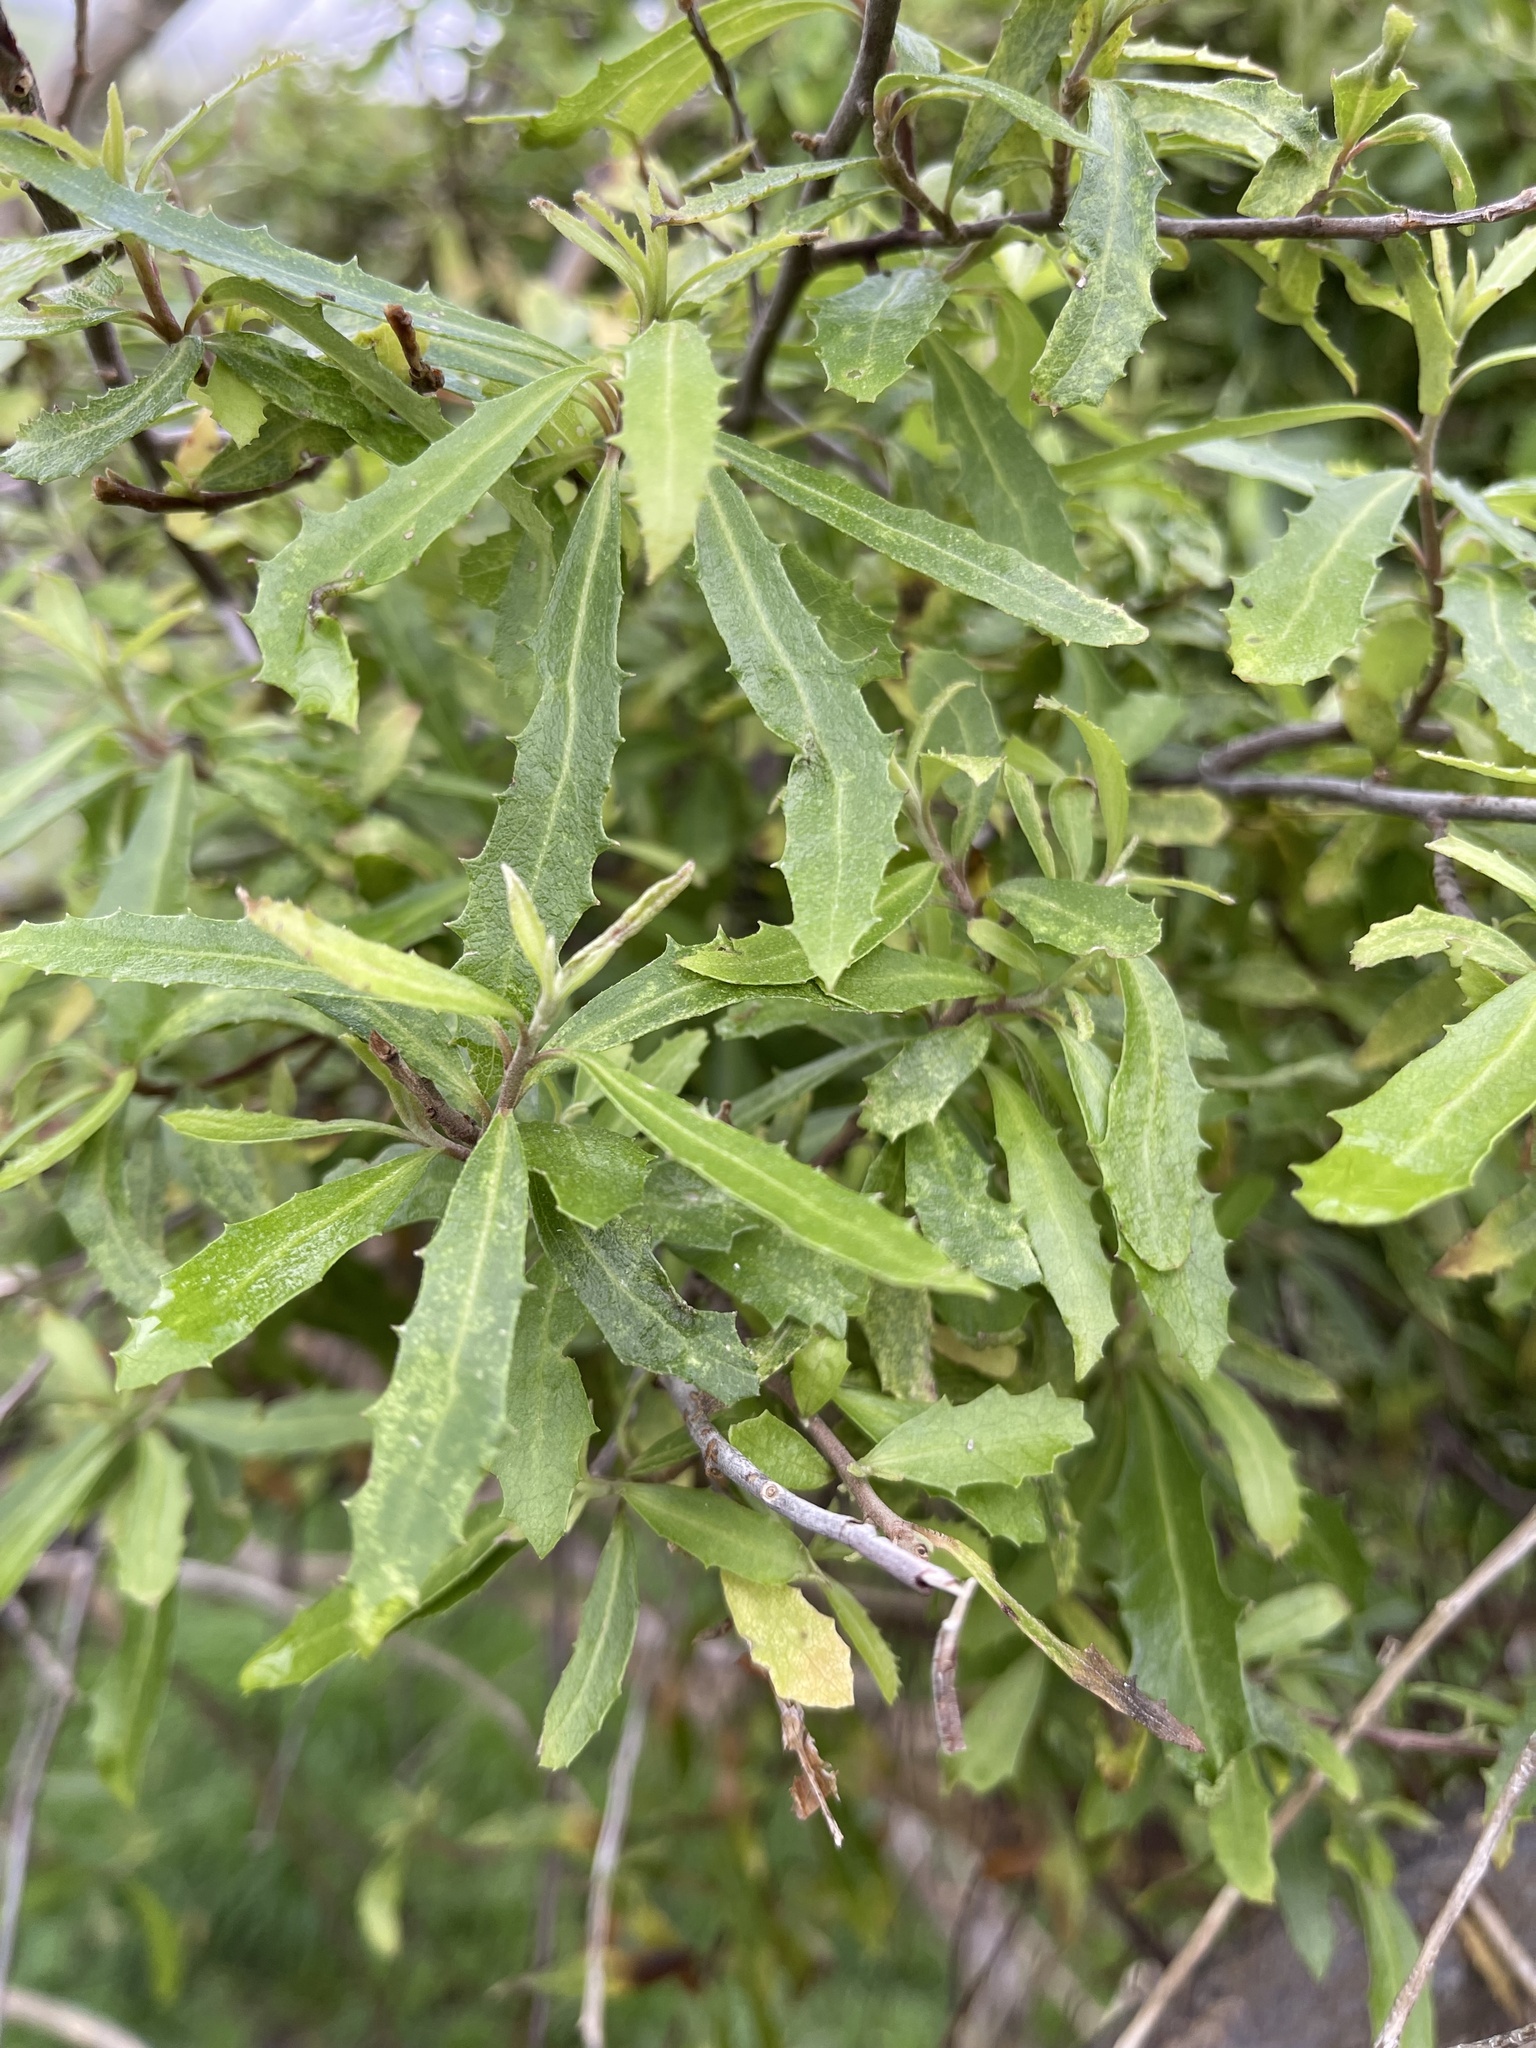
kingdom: Plantae
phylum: Tracheophyta
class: Magnoliopsida
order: Malvales
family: Malvaceae
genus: Hoheria
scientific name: Hoheria angustifolia
